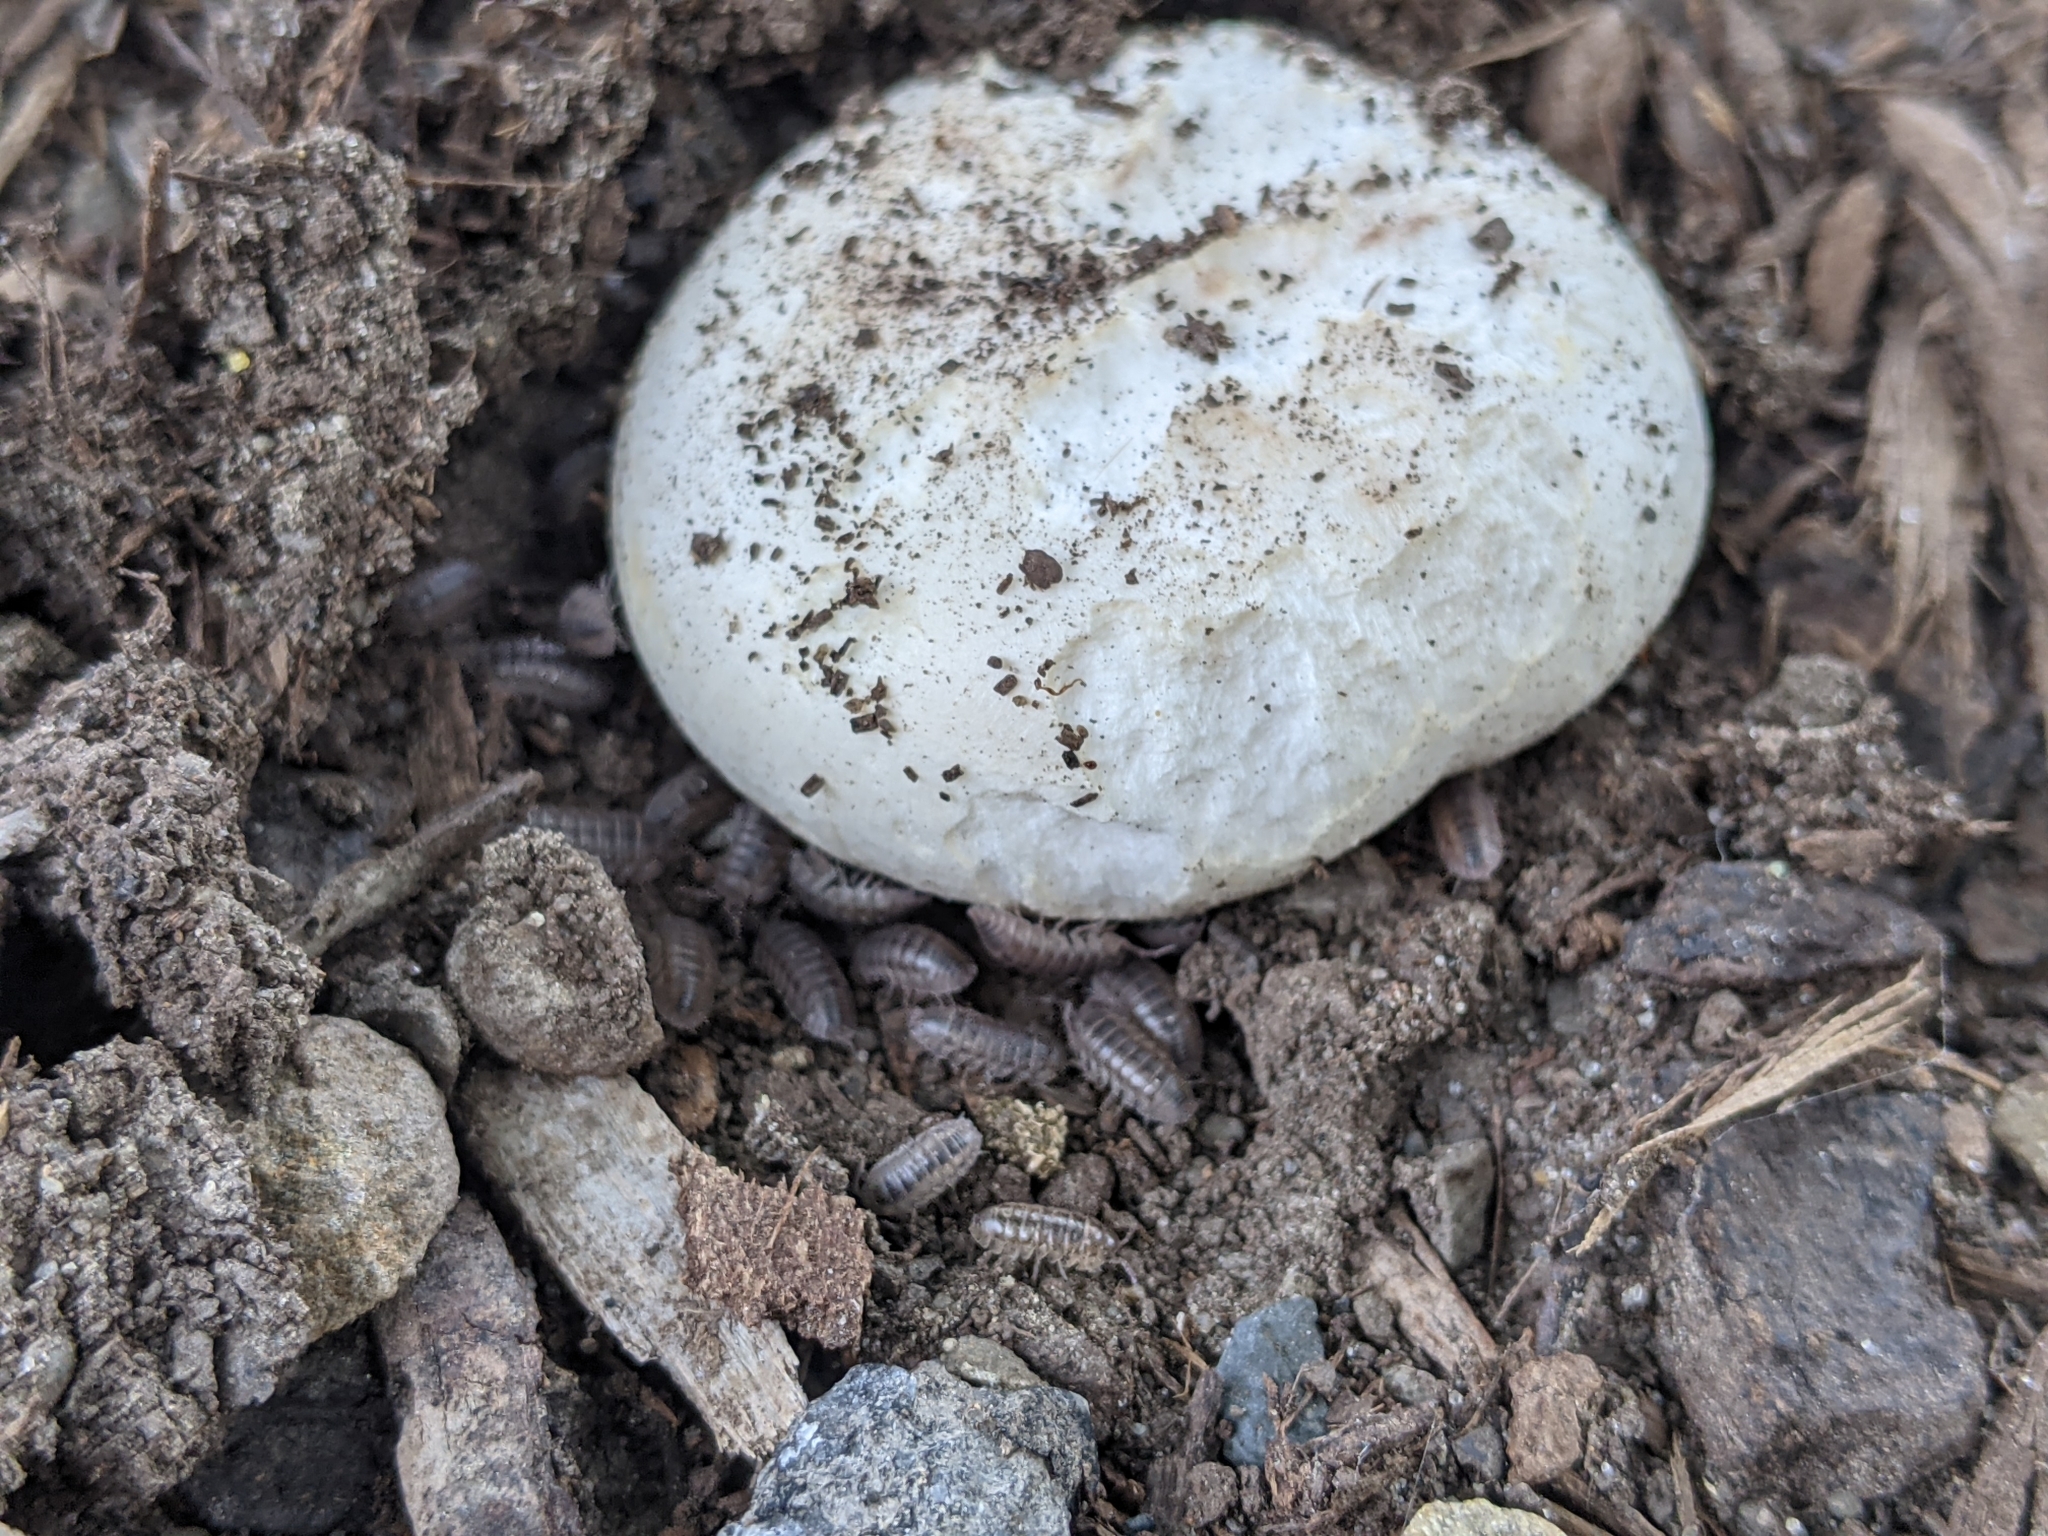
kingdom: Animalia
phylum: Arthropoda
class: Malacostraca
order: Isopoda
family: Armadillidiidae
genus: Armadillidium
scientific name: Armadillidium nasatum
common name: Isopod
